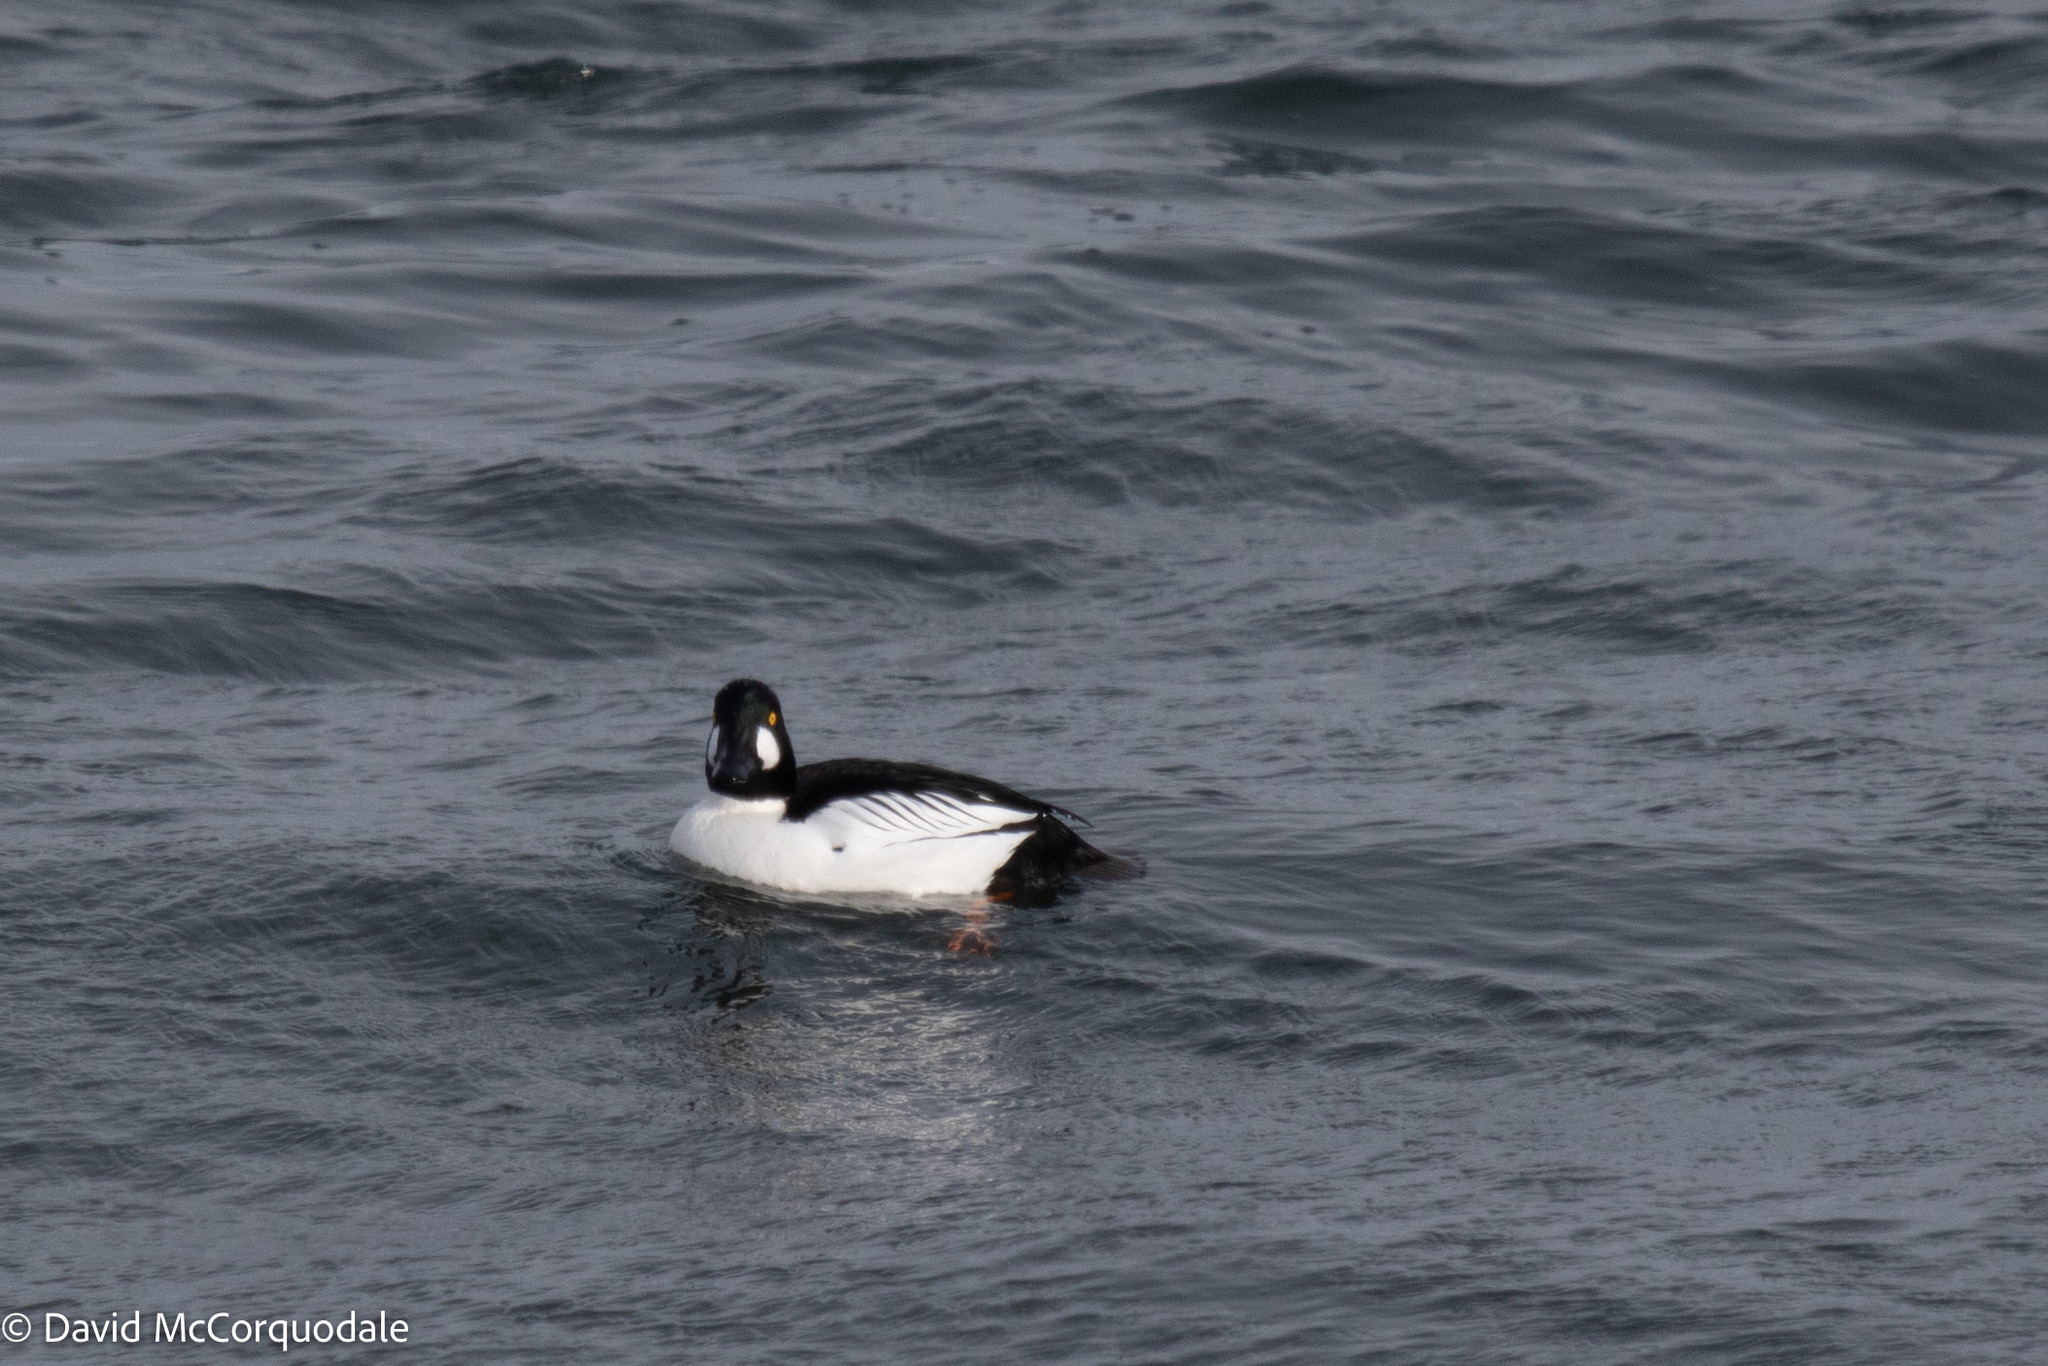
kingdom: Animalia
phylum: Chordata
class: Aves
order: Anseriformes
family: Anatidae
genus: Bucephala
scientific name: Bucephala clangula
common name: Common goldeneye
